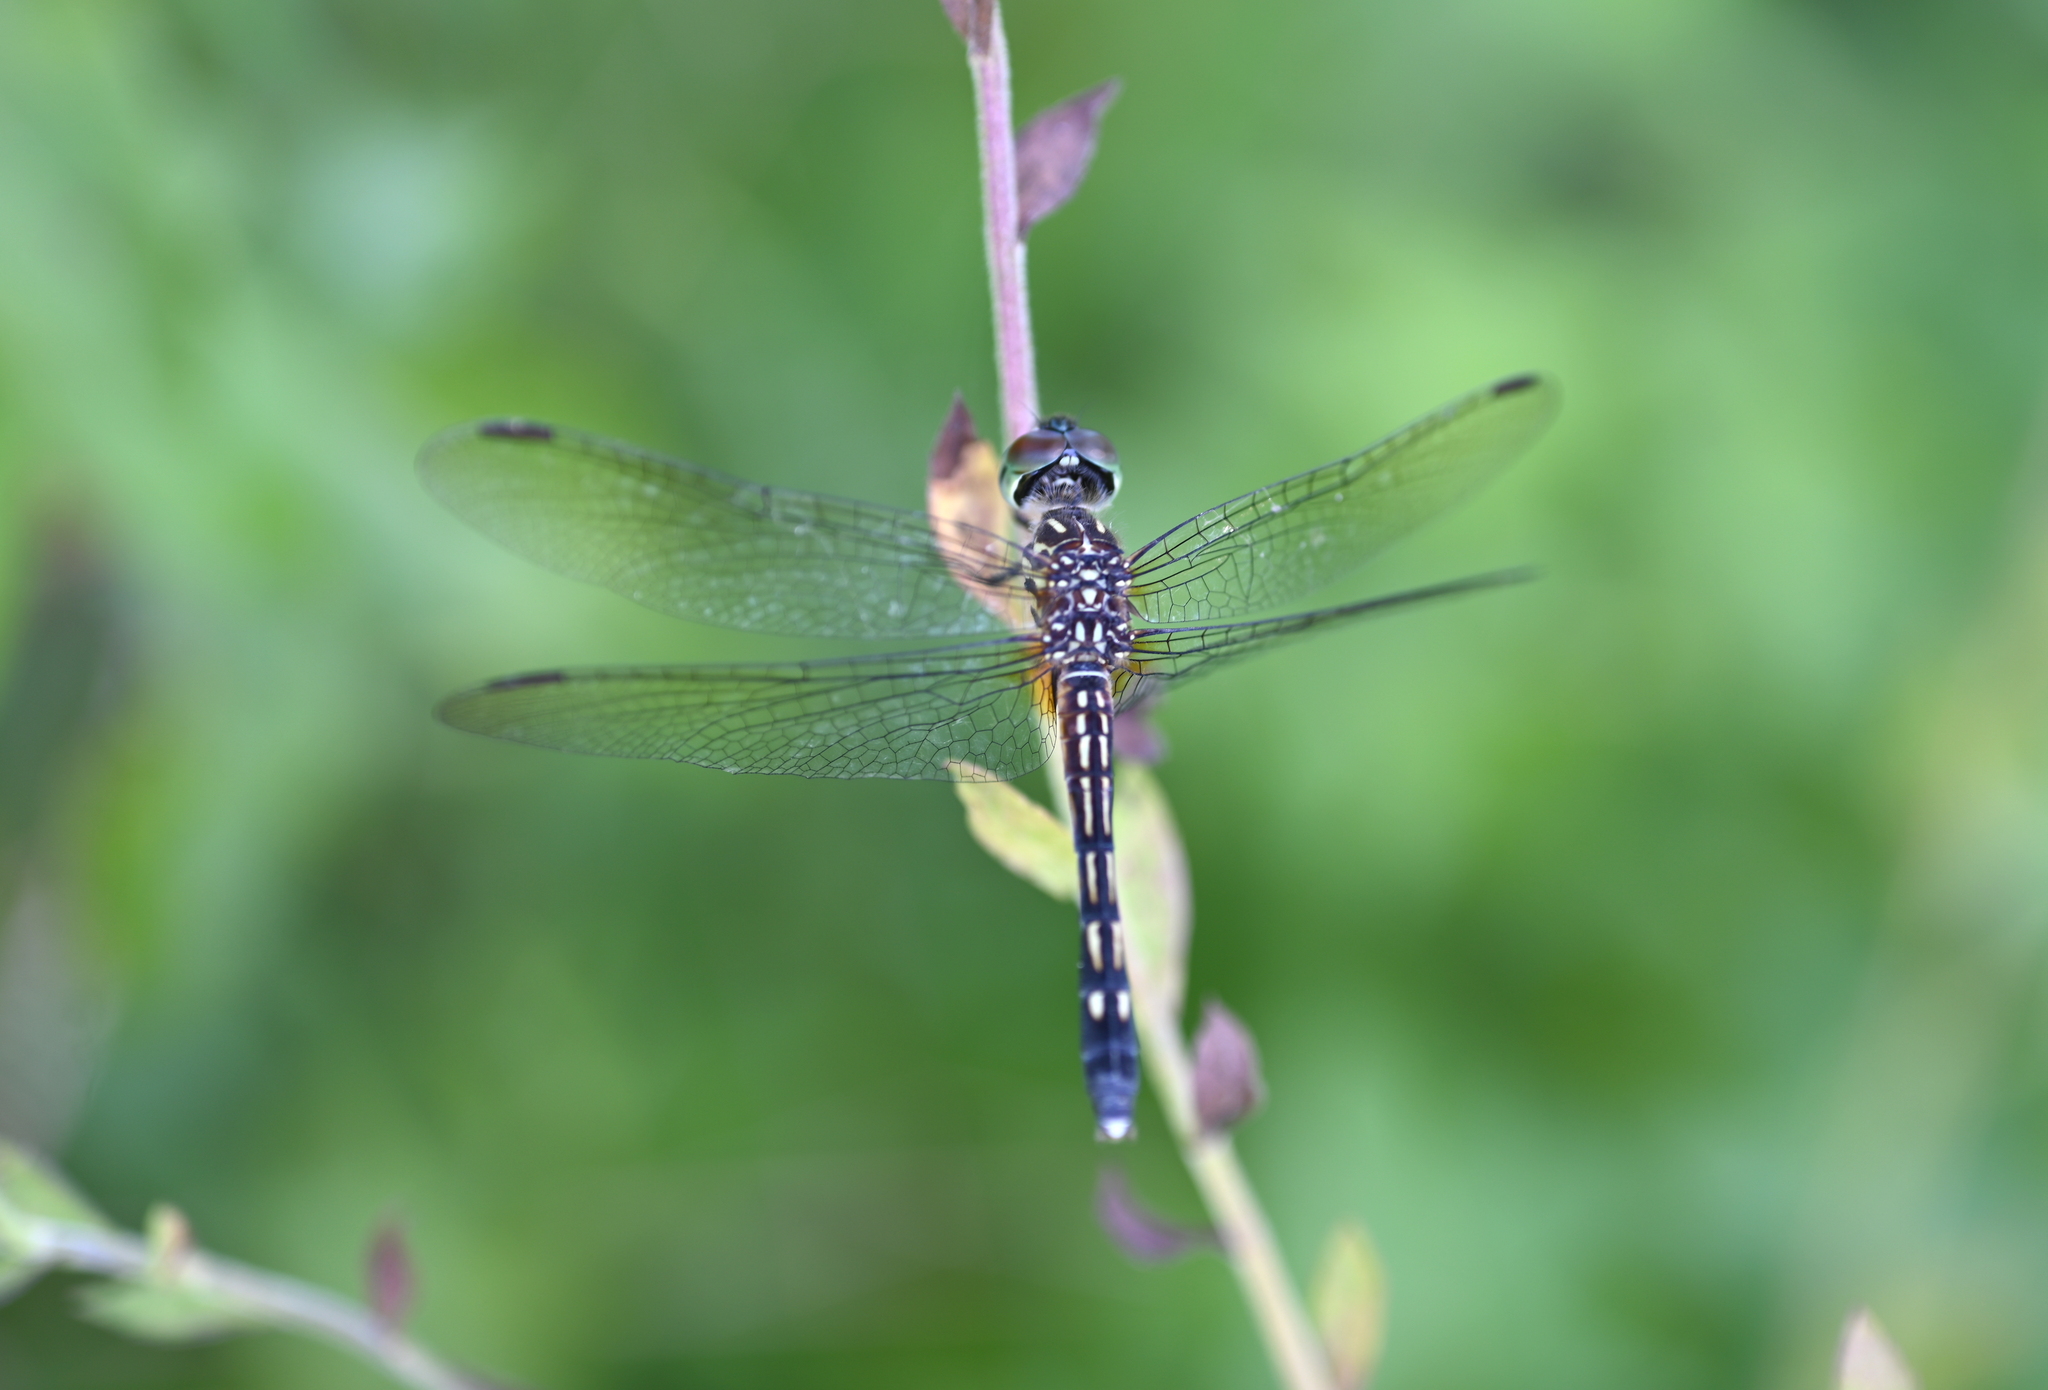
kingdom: Animalia
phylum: Arthropoda
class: Insecta
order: Odonata
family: Libellulidae
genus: Pachydiplax
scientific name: Pachydiplax longipennis
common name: Blue dasher
